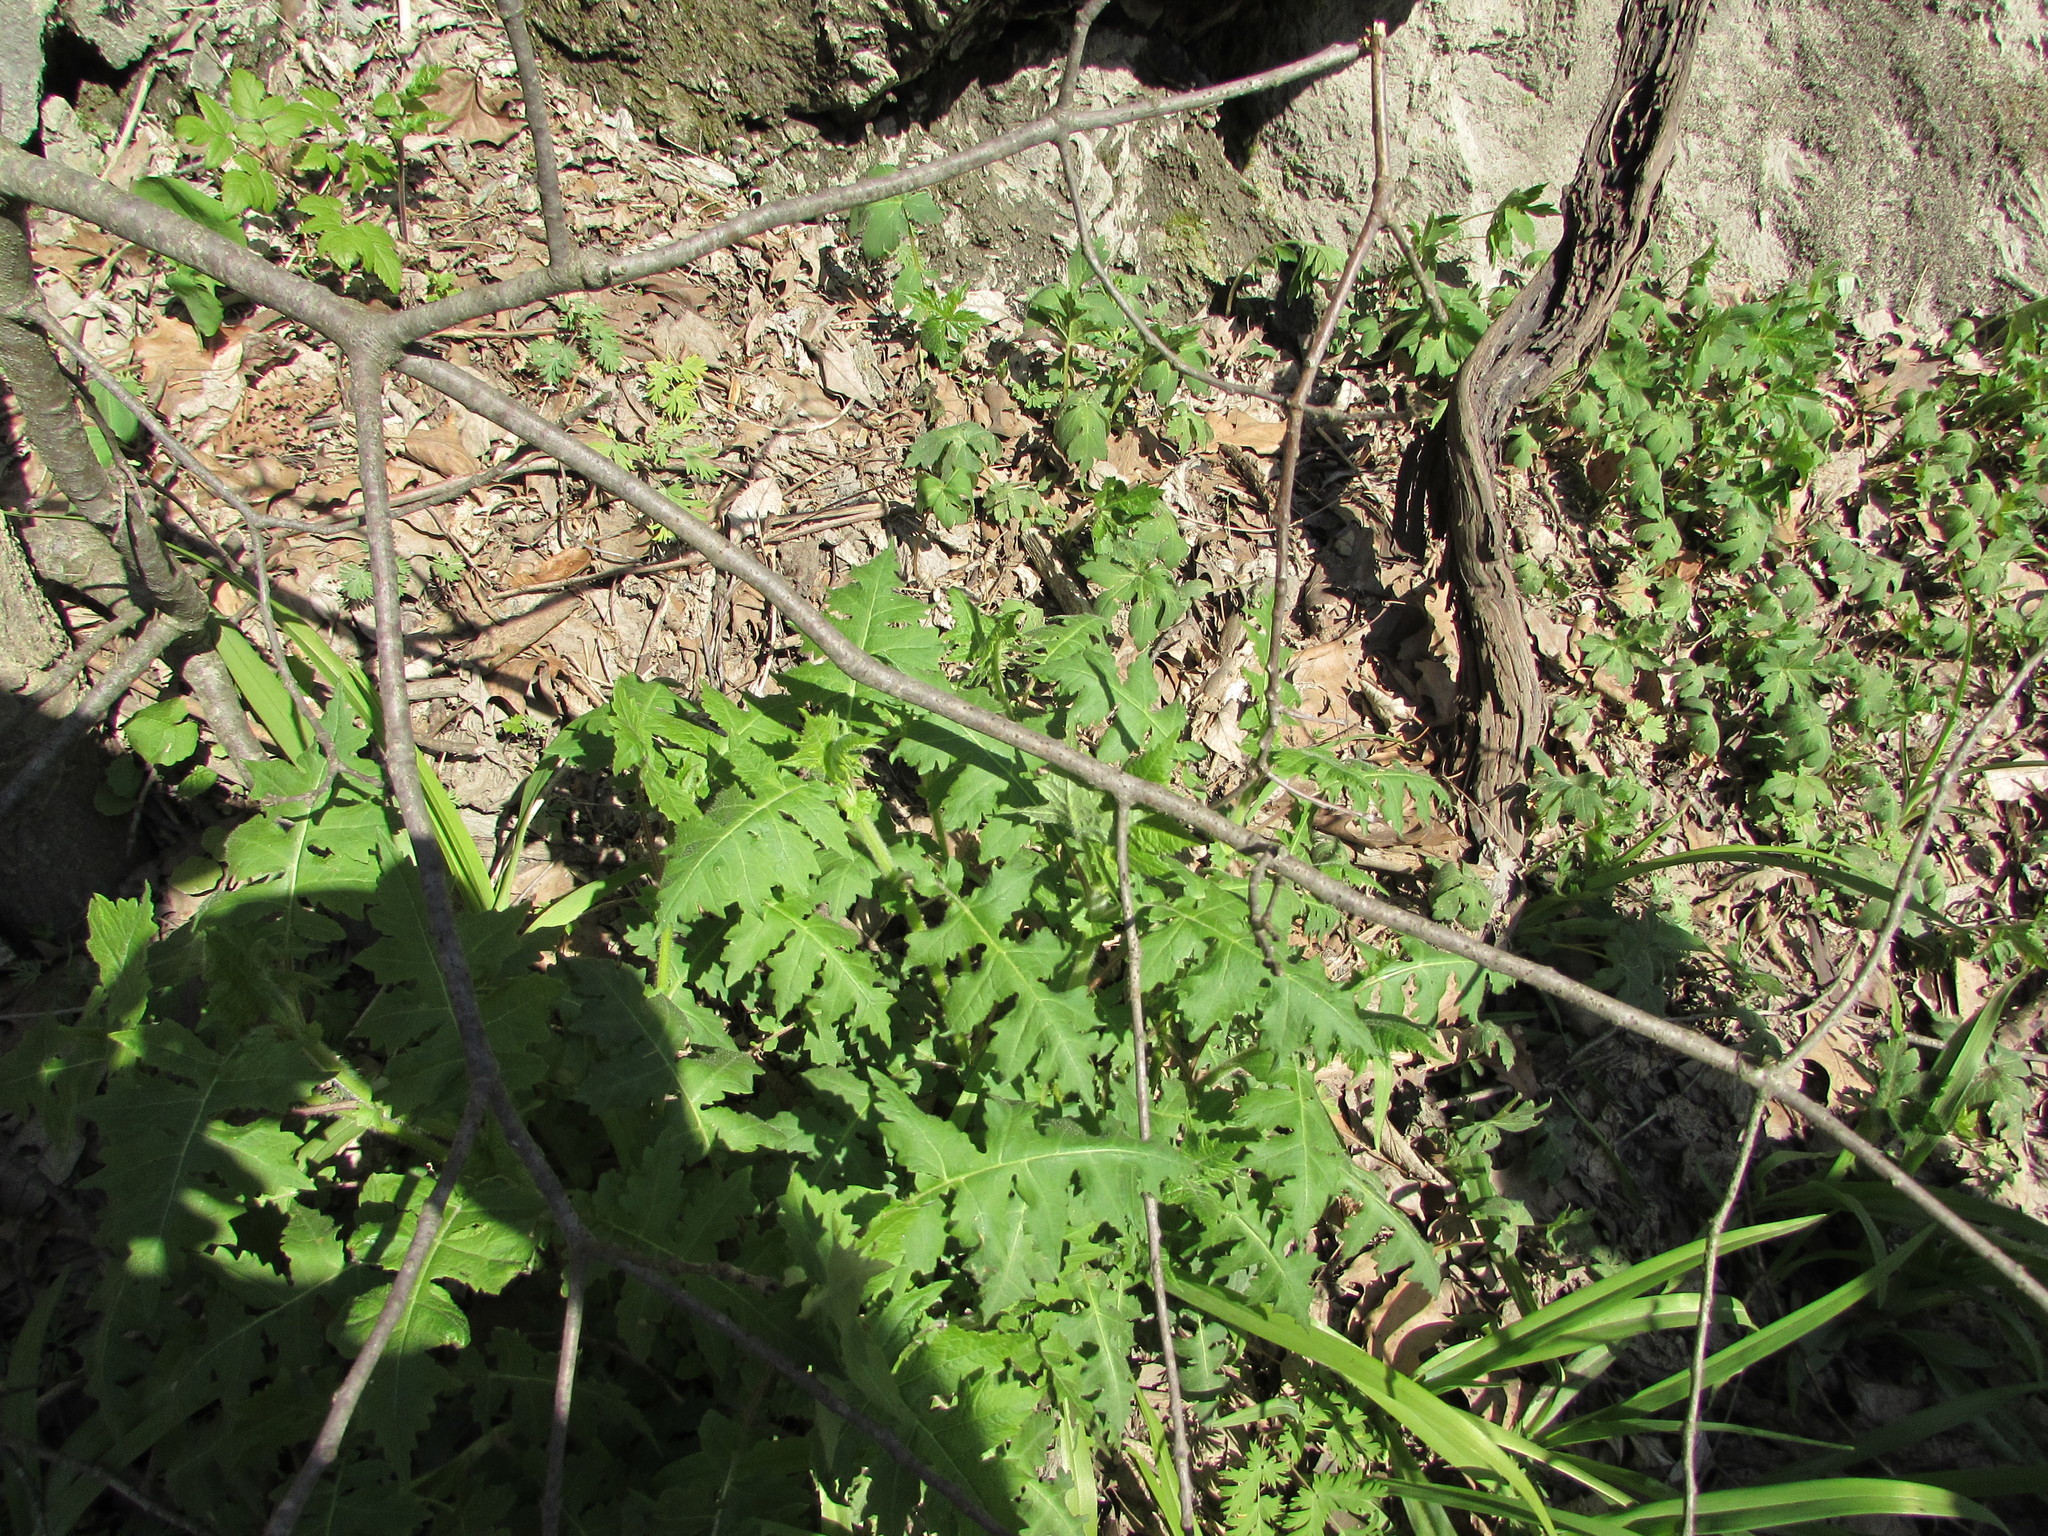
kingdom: Plantae
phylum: Tracheophyta
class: Magnoliopsida
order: Asterales
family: Asteraceae
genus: Polymnia
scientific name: Polymnia canadensis
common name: Pale-flowered leafcup
